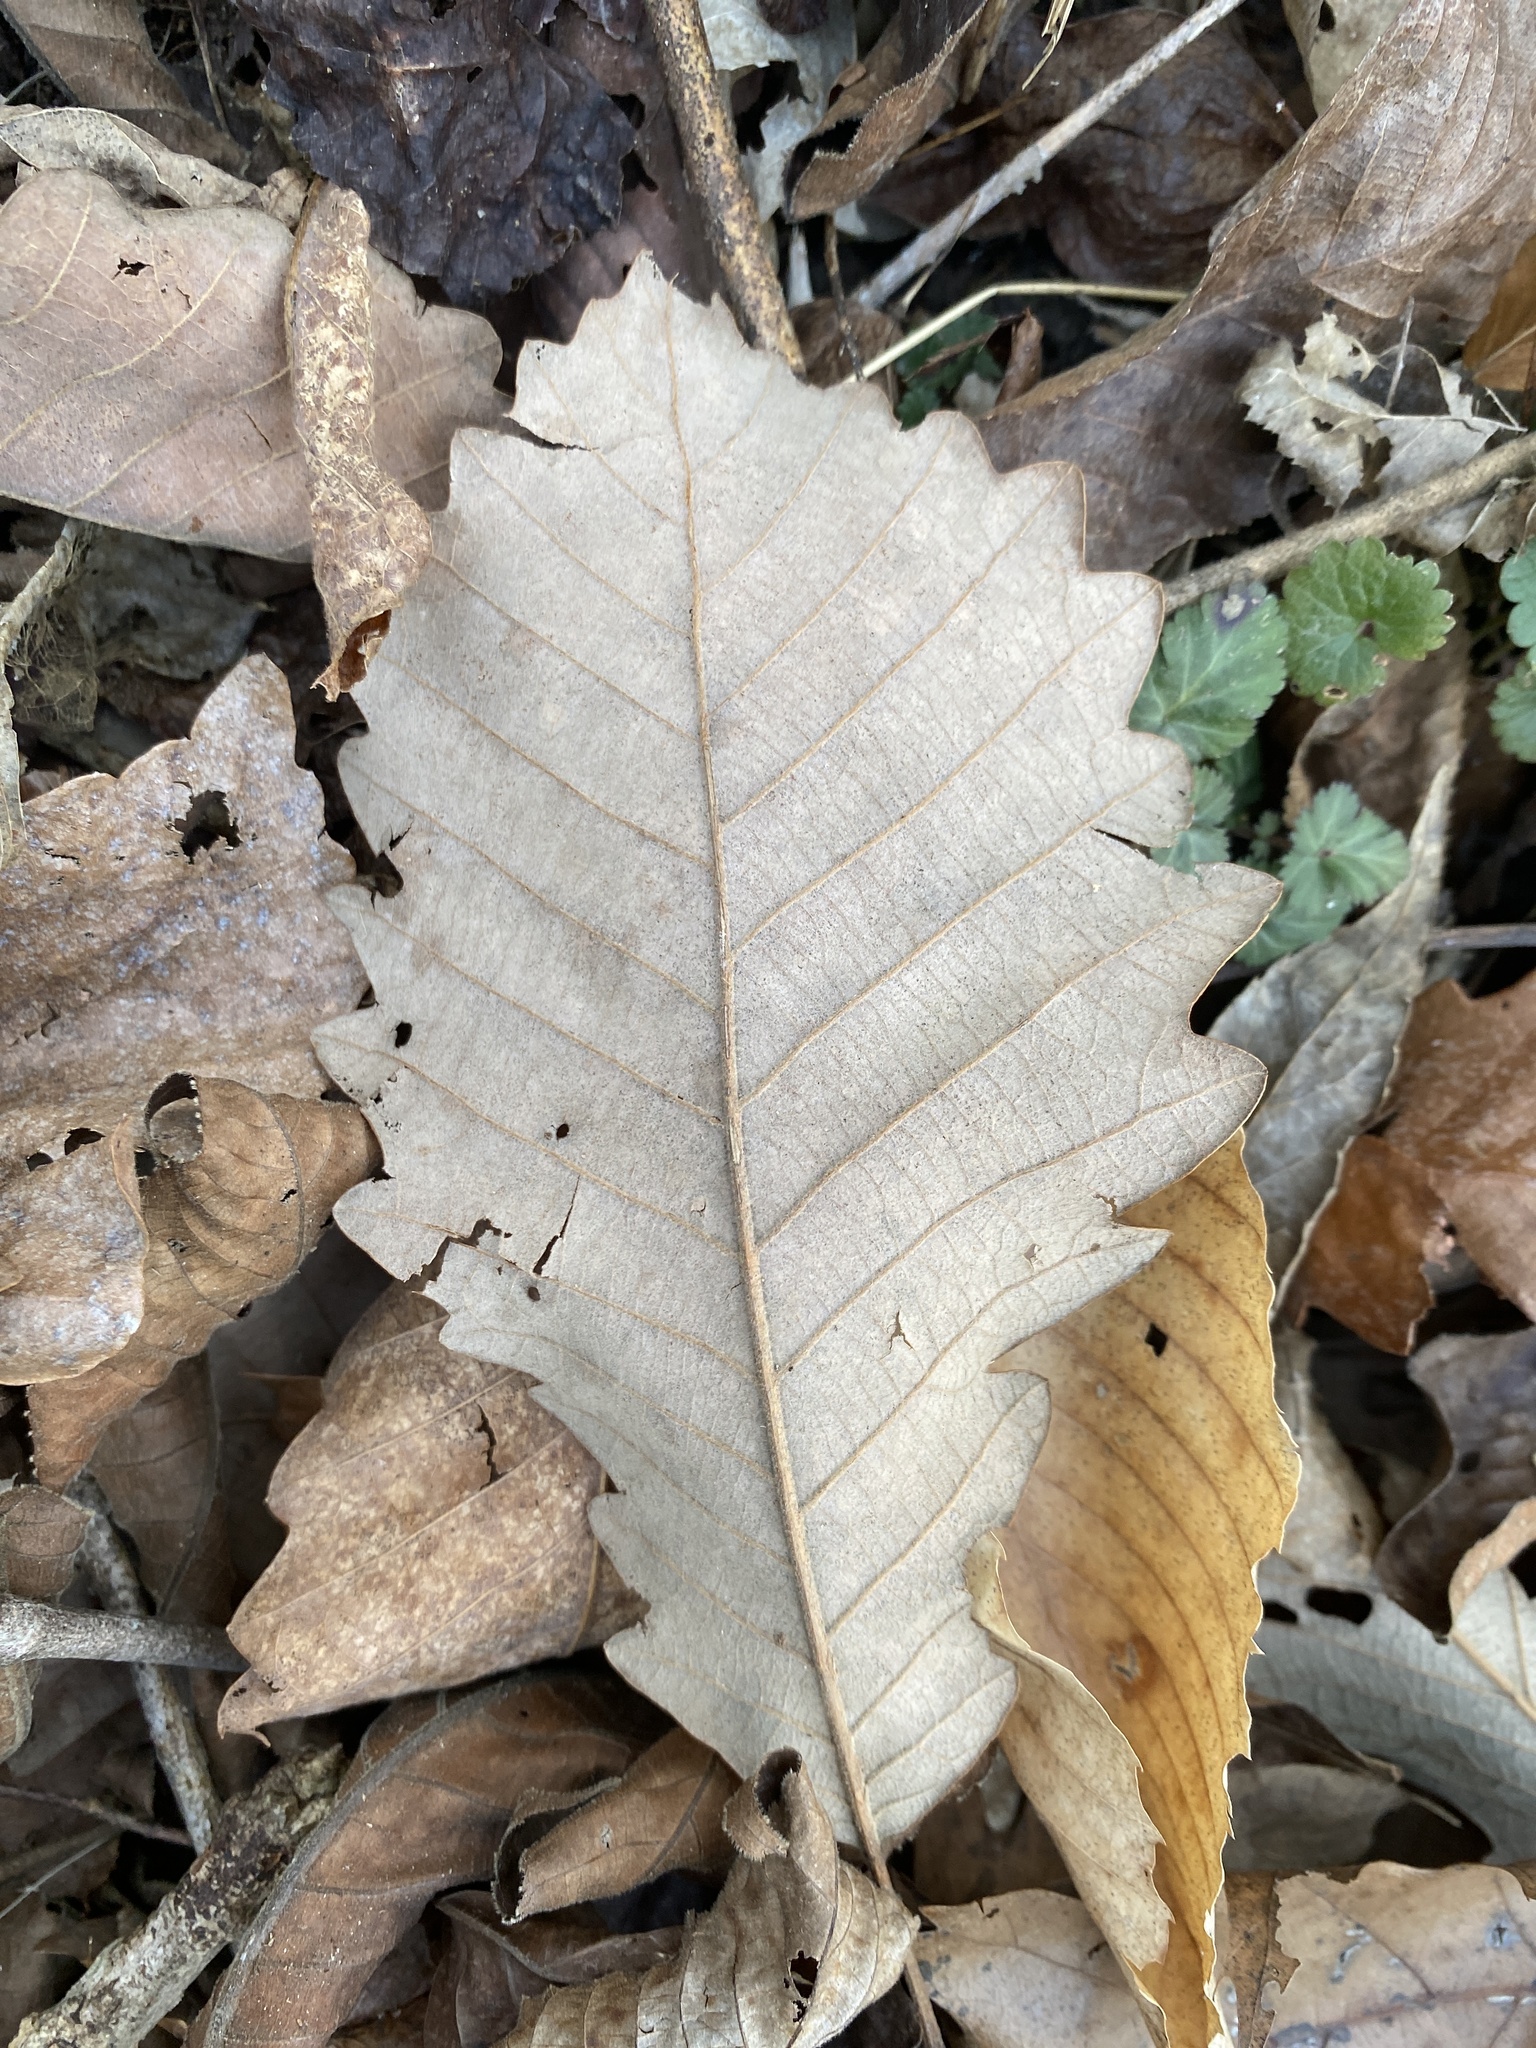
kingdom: Plantae
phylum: Tracheophyta
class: Magnoliopsida
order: Fagales
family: Fagaceae
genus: Quercus
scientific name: Quercus michauxii
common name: Swamp chestnut oak
